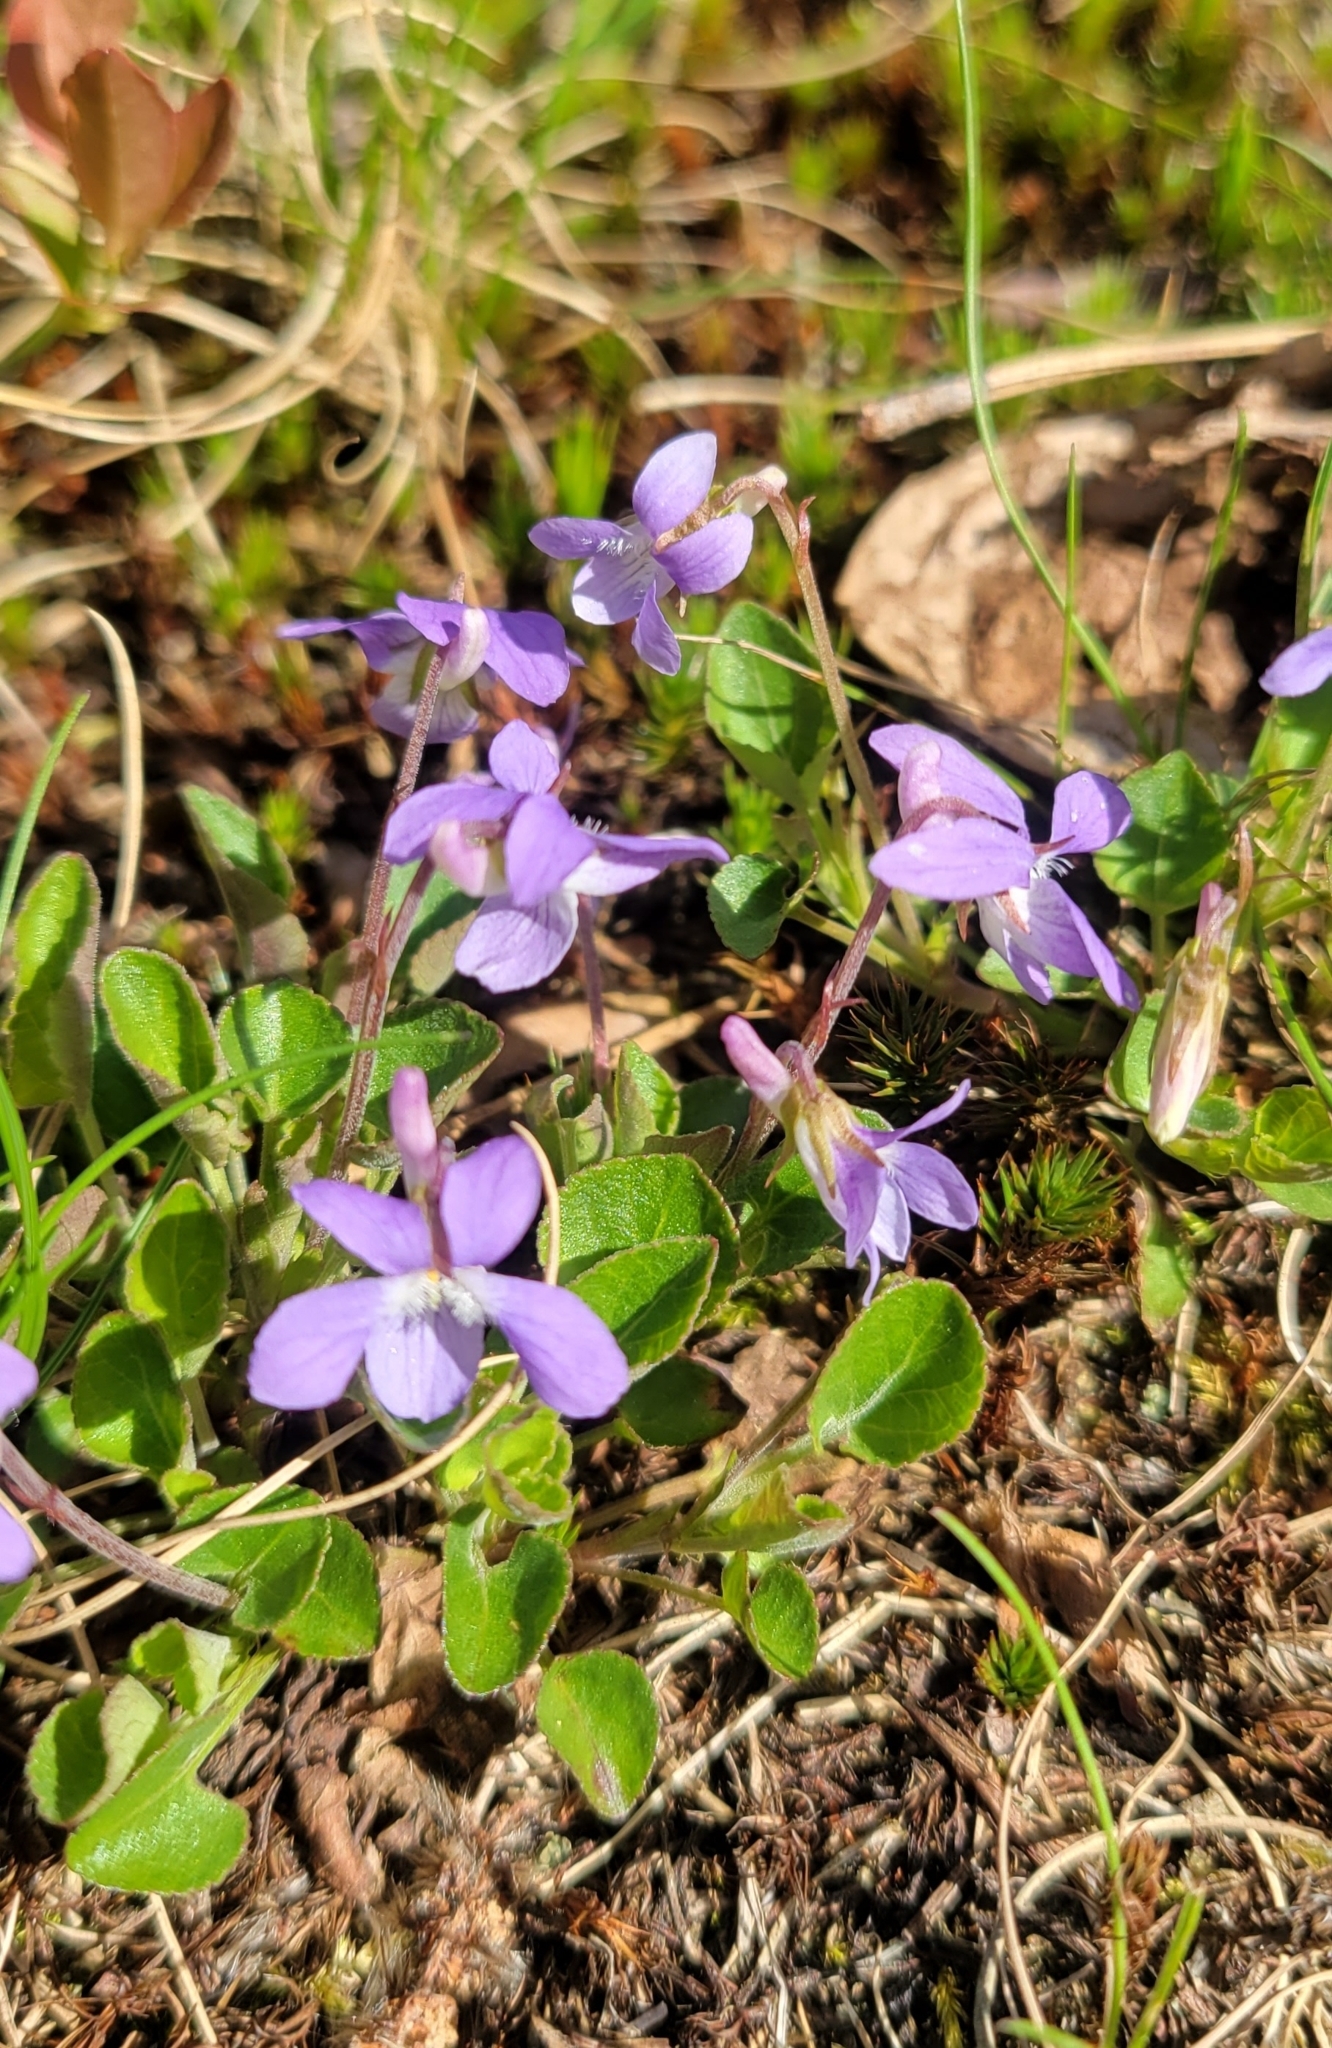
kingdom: Plantae
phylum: Tracheophyta
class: Magnoliopsida
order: Malpighiales
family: Violaceae
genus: Viola
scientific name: Viola labradorica
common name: Labrador violet
